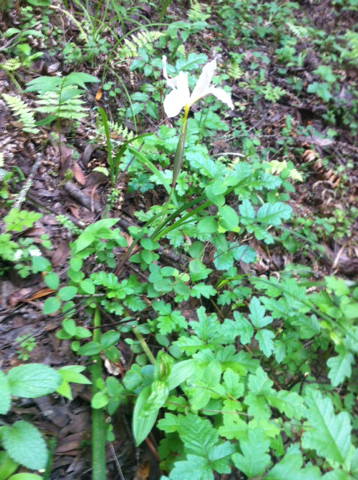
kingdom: Plantae
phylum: Tracheophyta
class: Liliopsida
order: Asparagales
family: Iridaceae
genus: Iris
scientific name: Iris douglasiana
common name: Marin iris
